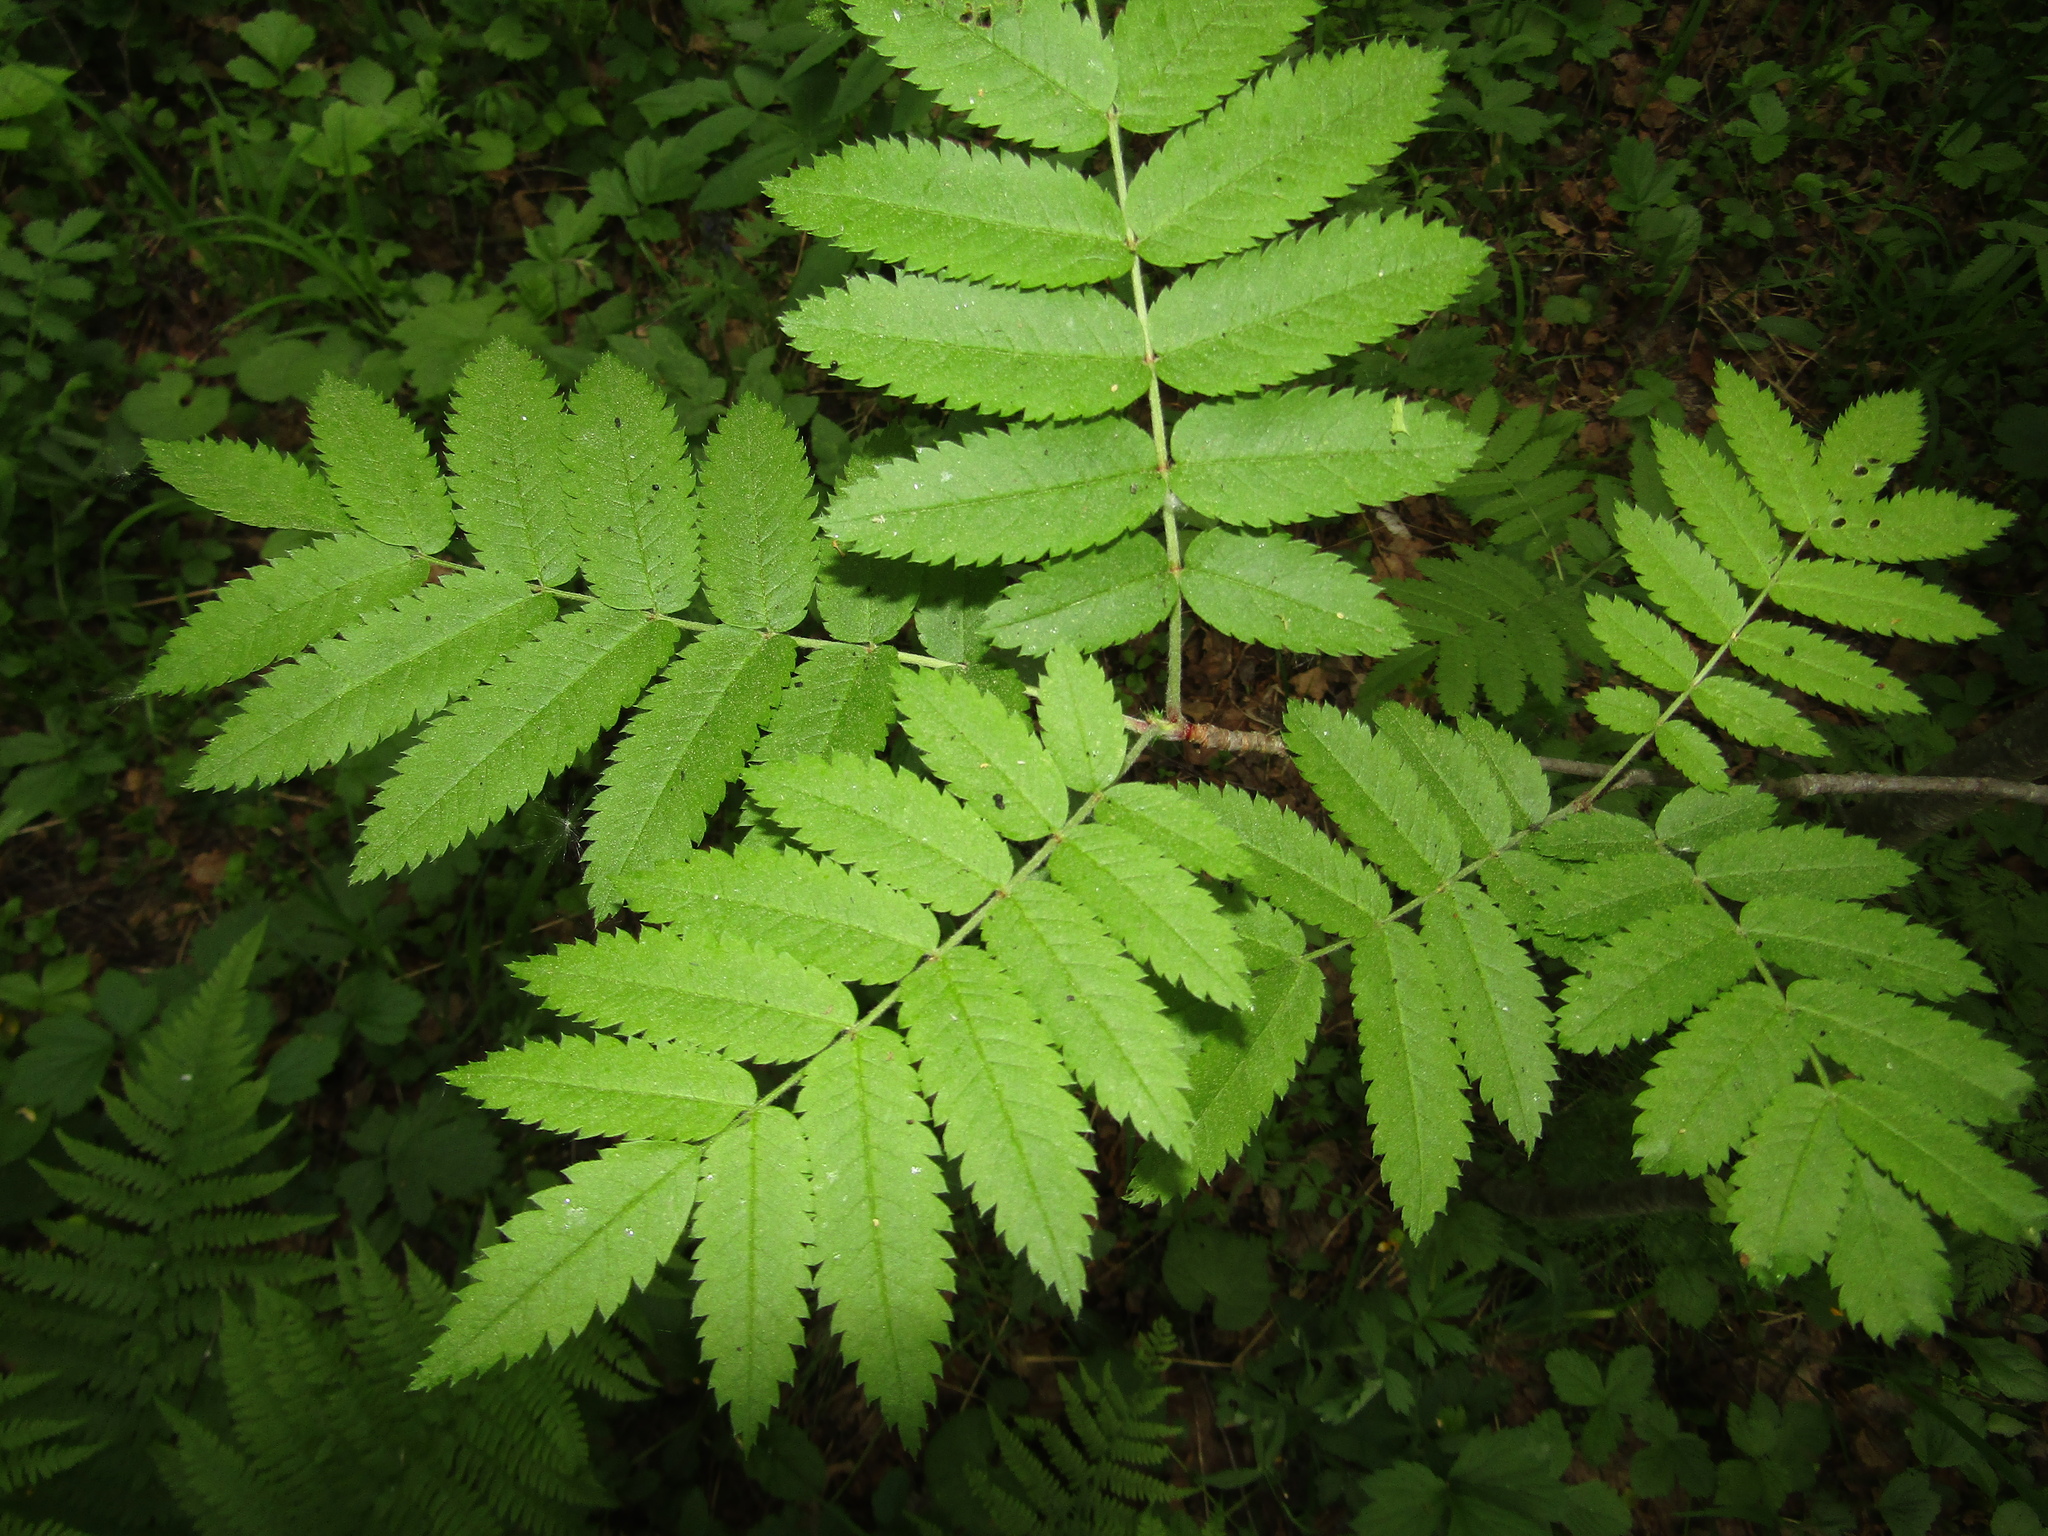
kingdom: Plantae
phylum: Tracheophyta
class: Magnoliopsida
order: Rosales
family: Rosaceae
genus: Sorbus
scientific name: Sorbus aucuparia
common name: Rowan
